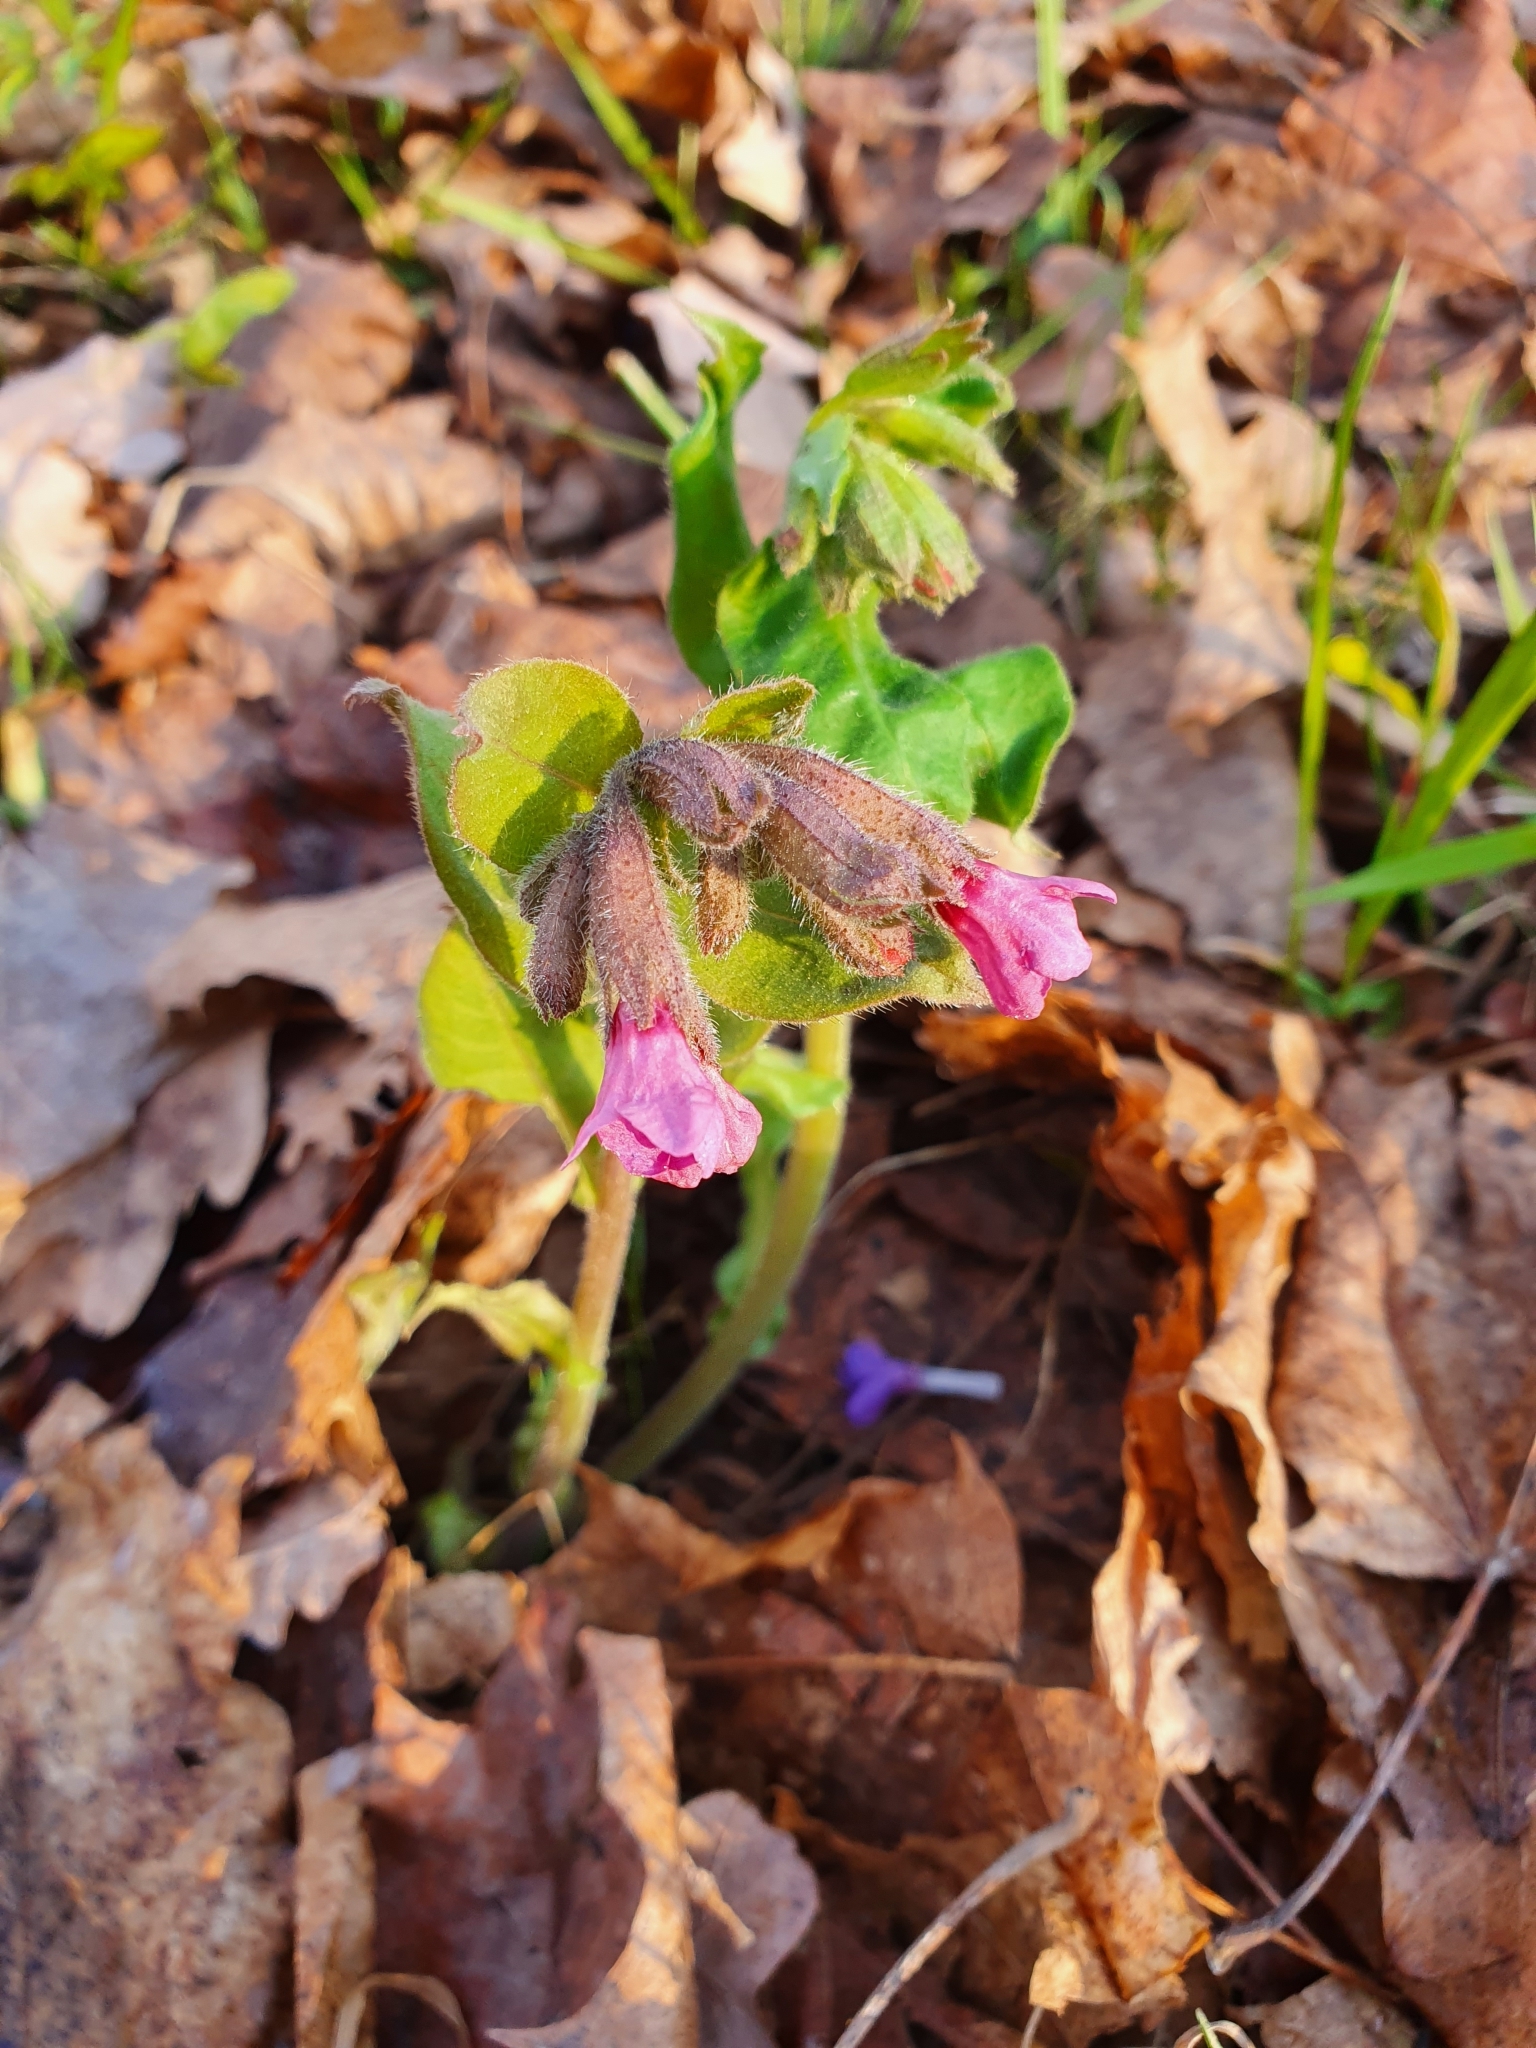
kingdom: Plantae
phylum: Tracheophyta
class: Magnoliopsida
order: Boraginales
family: Boraginaceae
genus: Pulmonaria
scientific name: Pulmonaria obscura
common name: Suffolk lungwort
